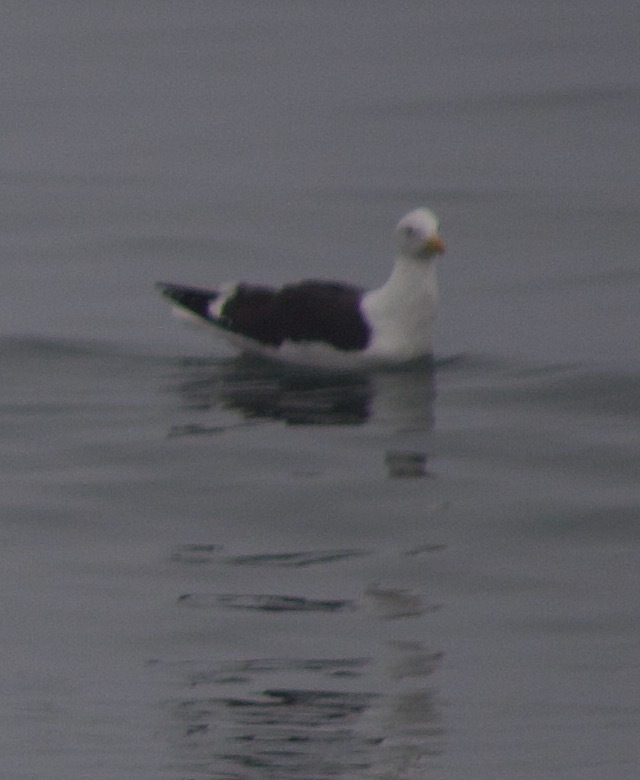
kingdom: Animalia
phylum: Chordata
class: Aves
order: Charadriiformes
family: Laridae
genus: Larus
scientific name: Larus dominicanus
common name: Kelp gull
